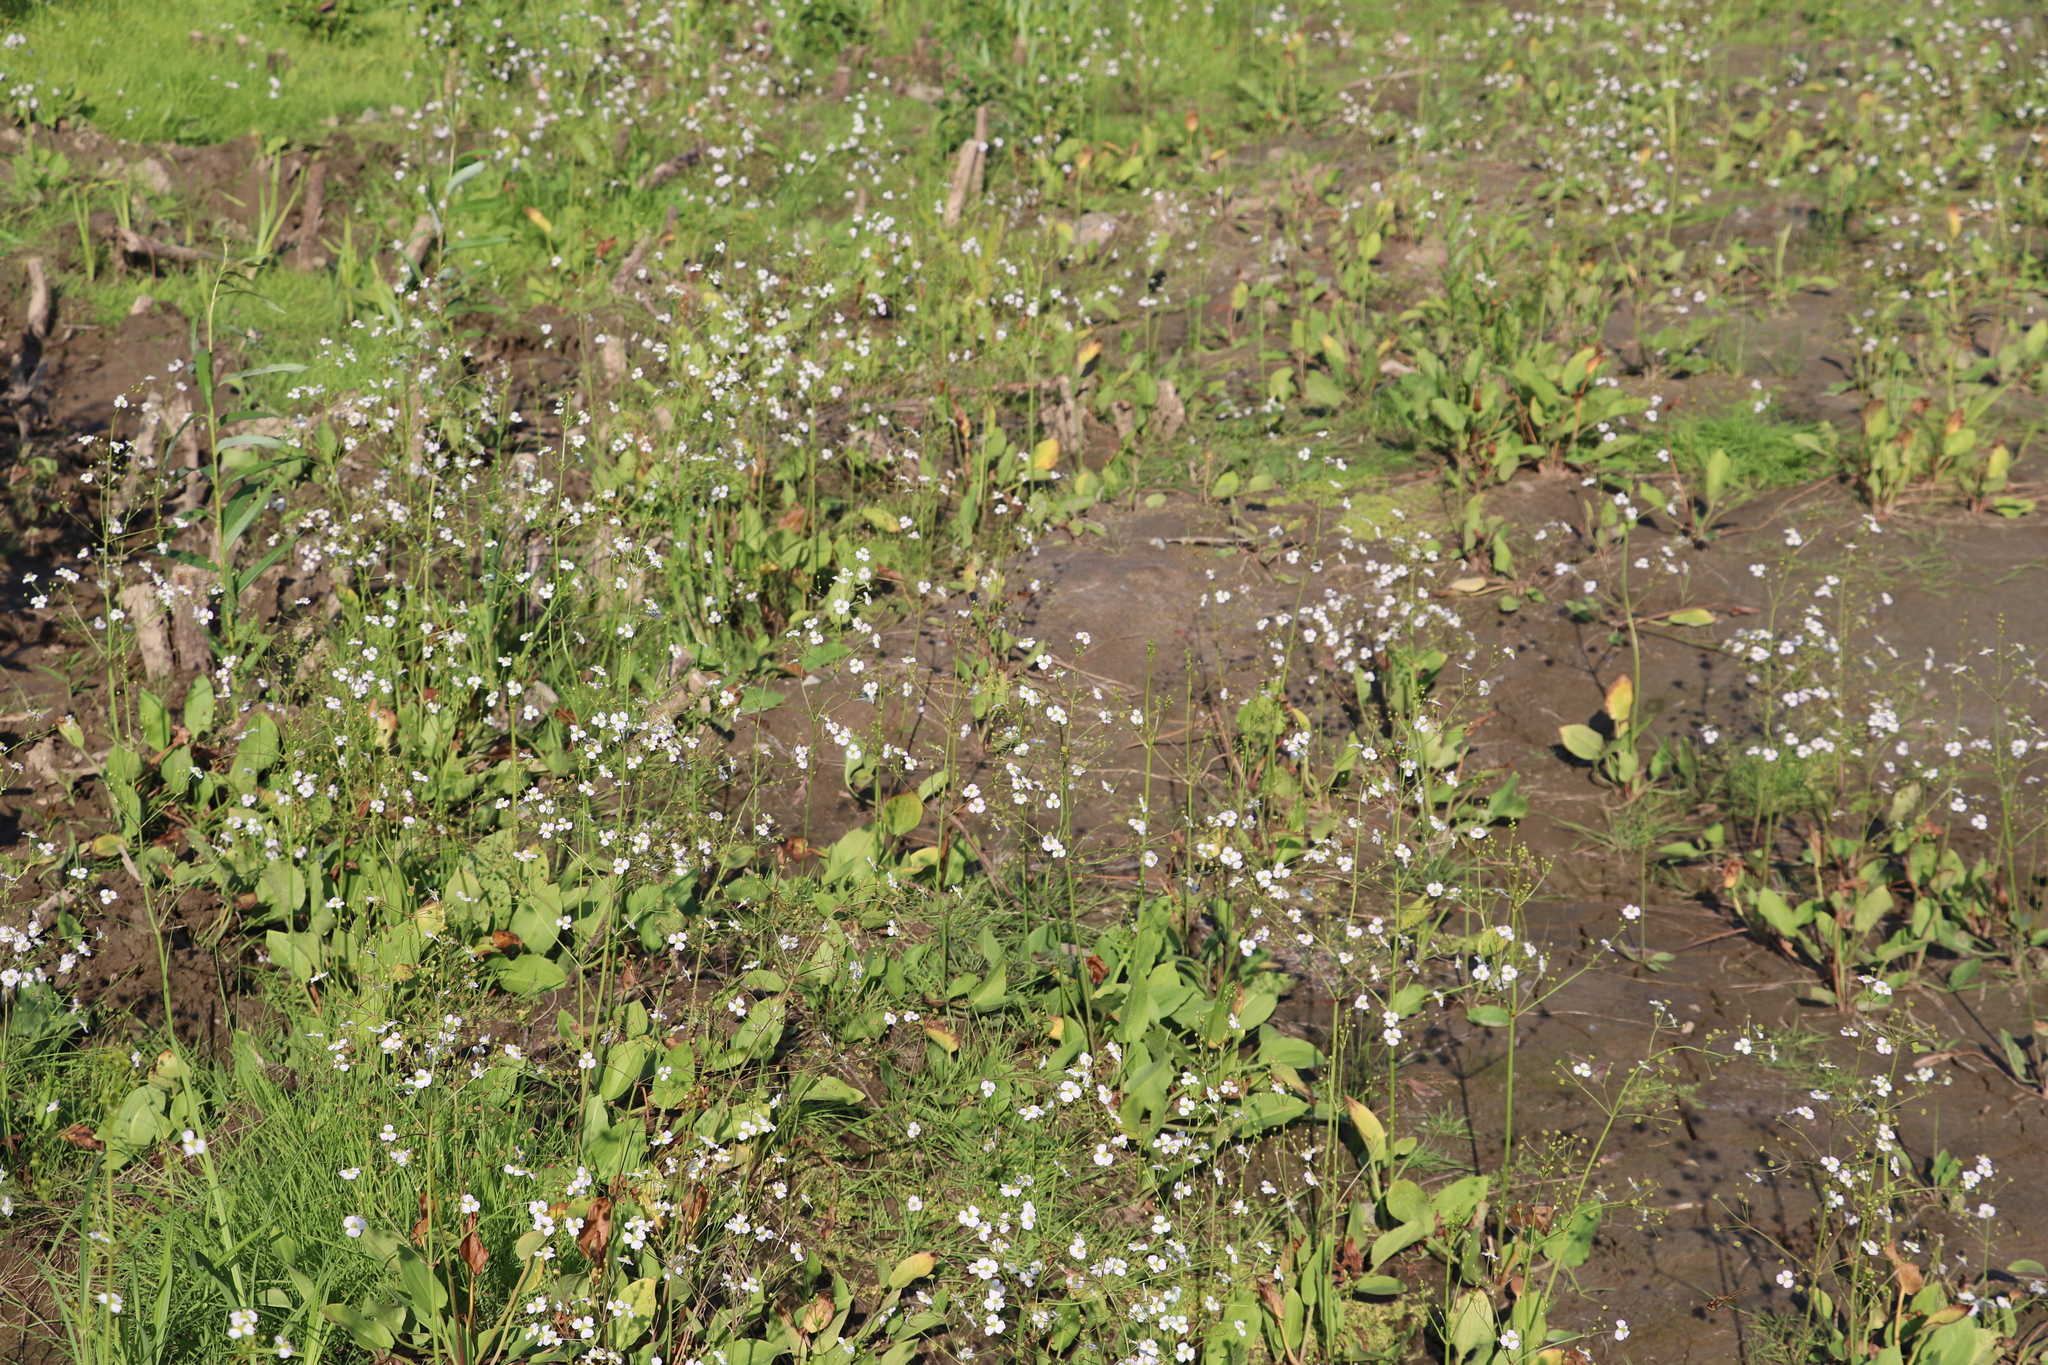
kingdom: Plantae
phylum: Tracheophyta
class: Liliopsida
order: Alismatales
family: Alismataceae
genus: Alisma
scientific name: Alisma plantago-aquatica
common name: Water-plantain
